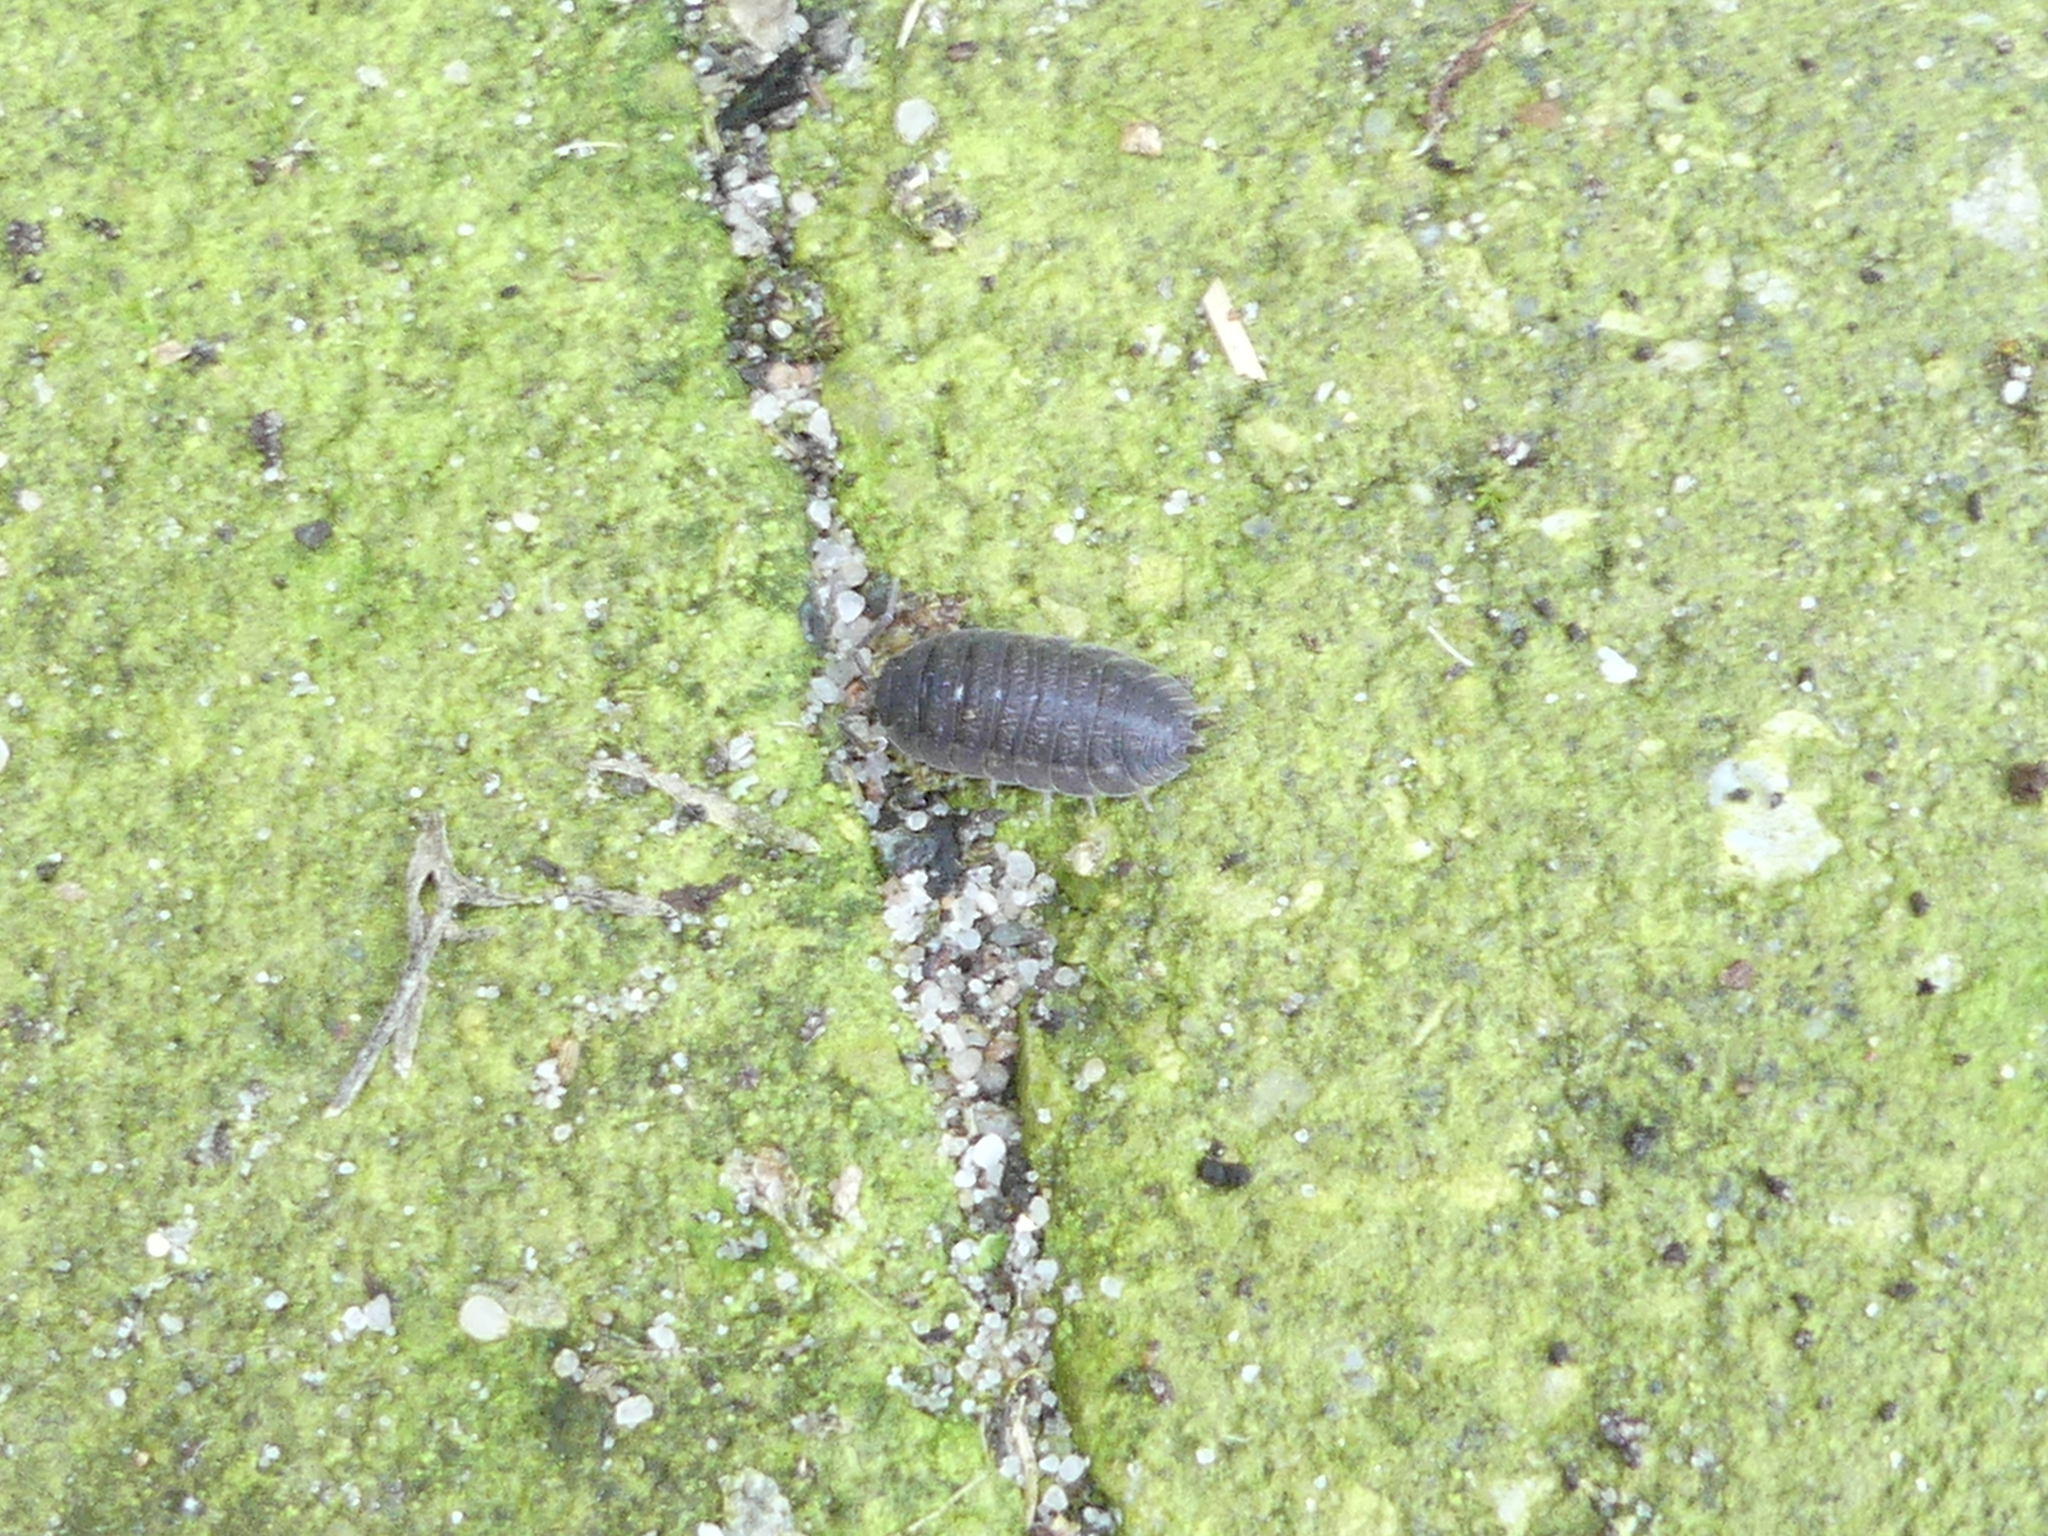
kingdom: Animalia
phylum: Arthropoda
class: Malacostraca
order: Isopoda
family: Porcellionidae
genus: Porcellio
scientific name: Porcellio scaber
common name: Common rough woodlouse
